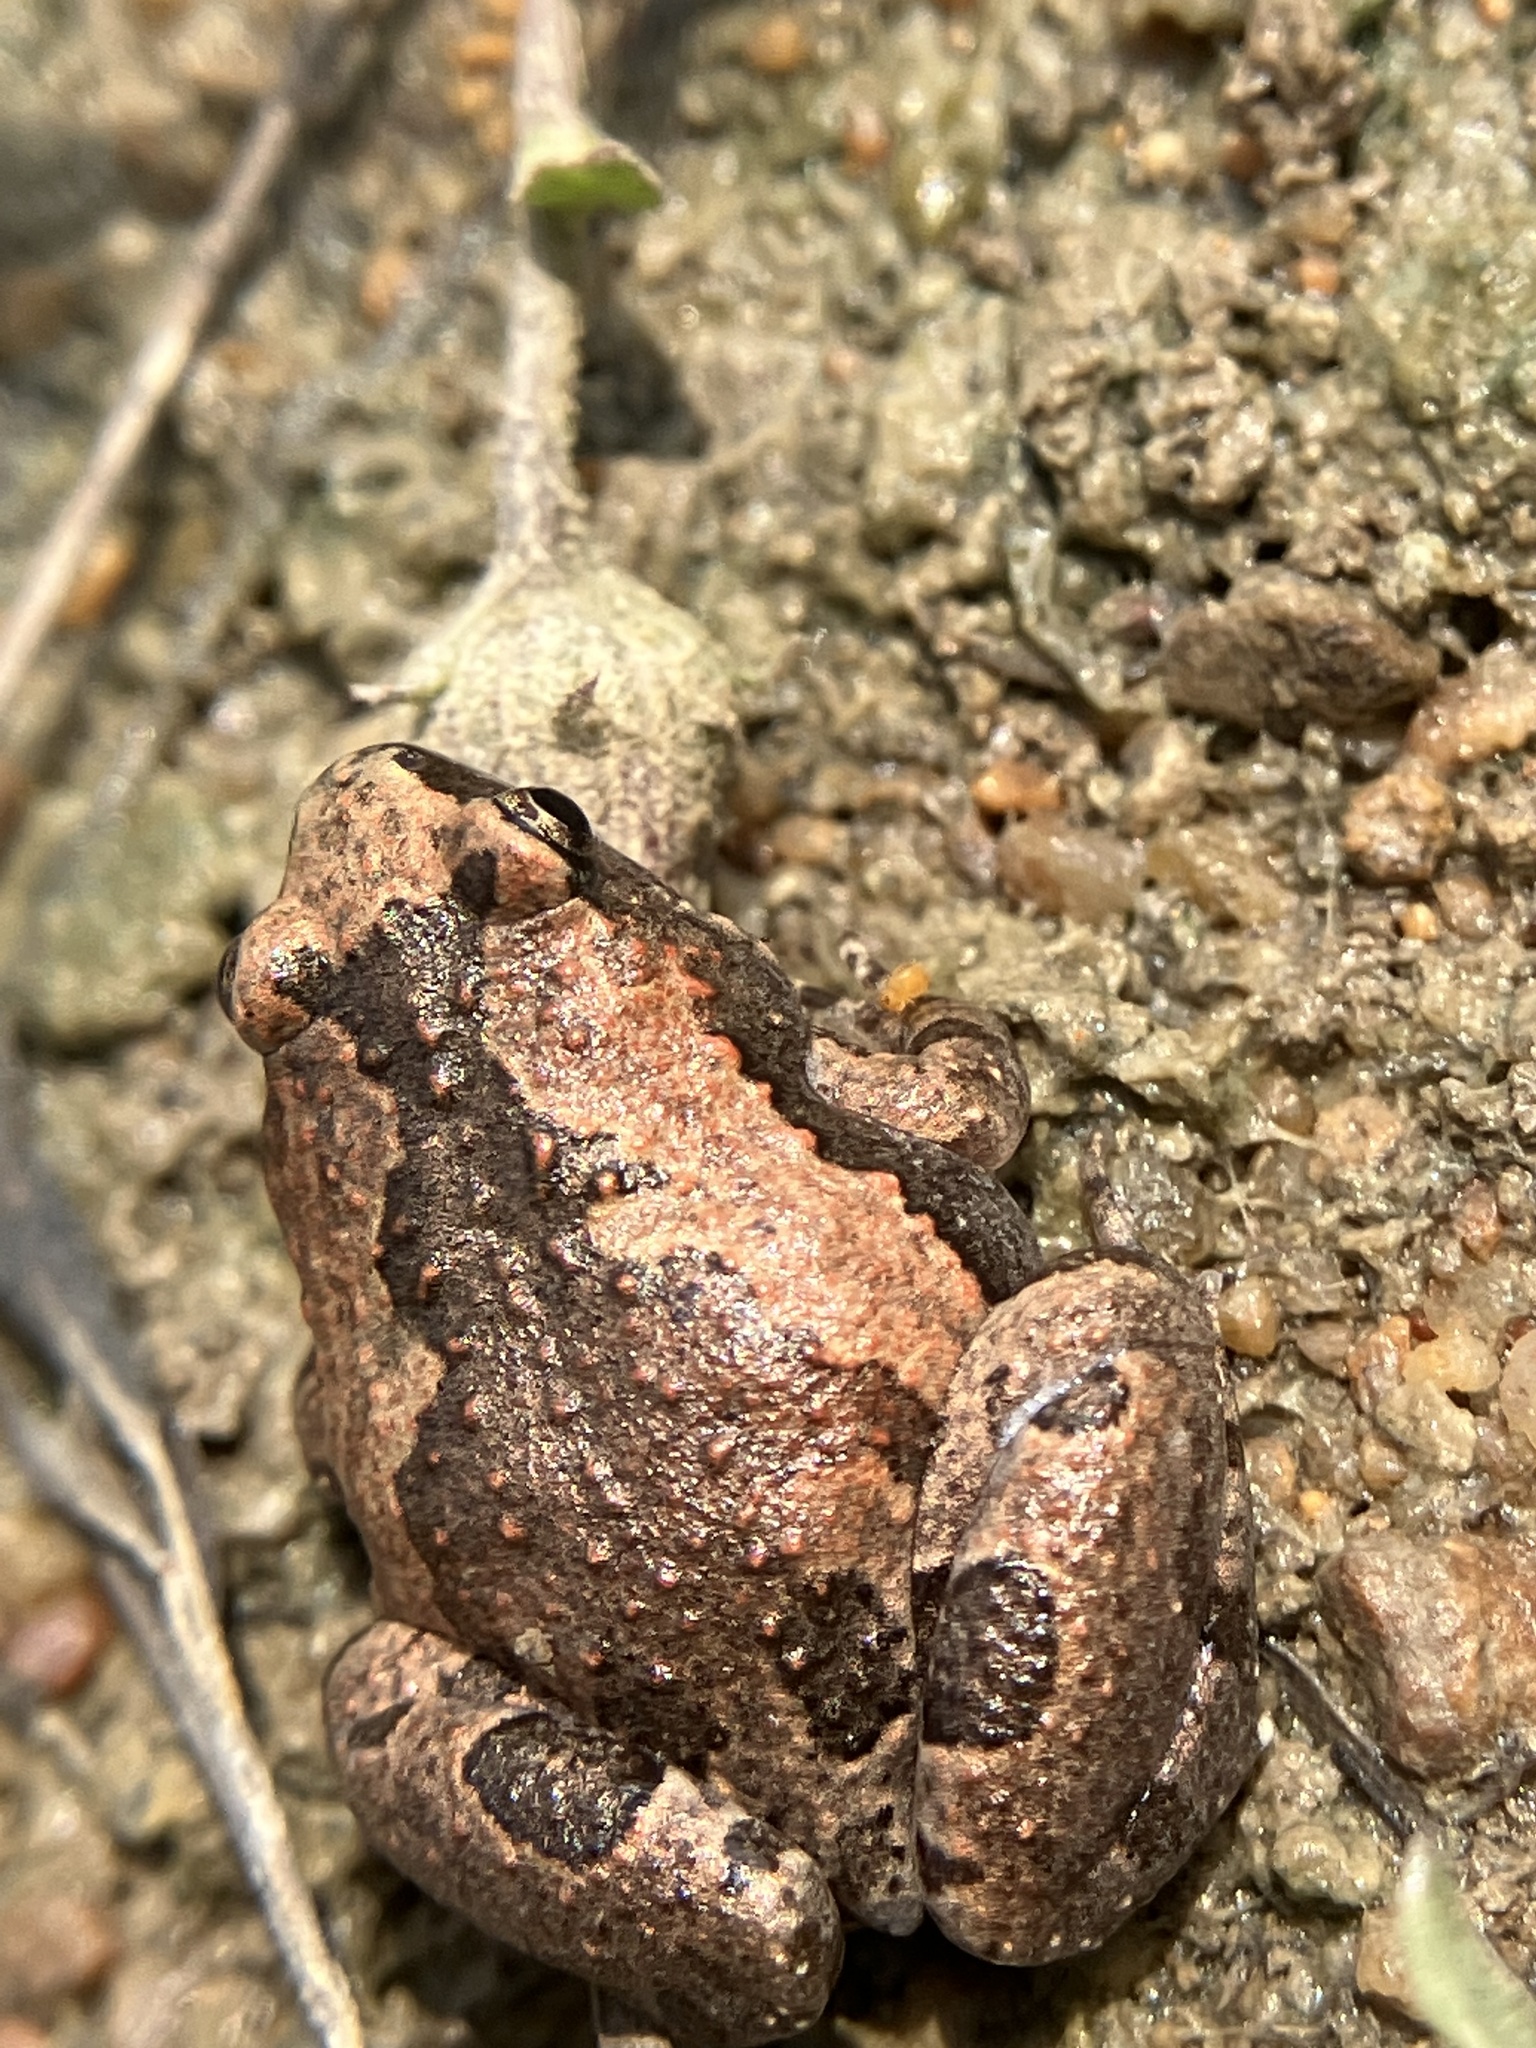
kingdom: Animalia
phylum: Chordata
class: Amphibia
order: Anura
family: Microhylidae
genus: Microhyla
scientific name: Microhyla ornata
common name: Ant frog
